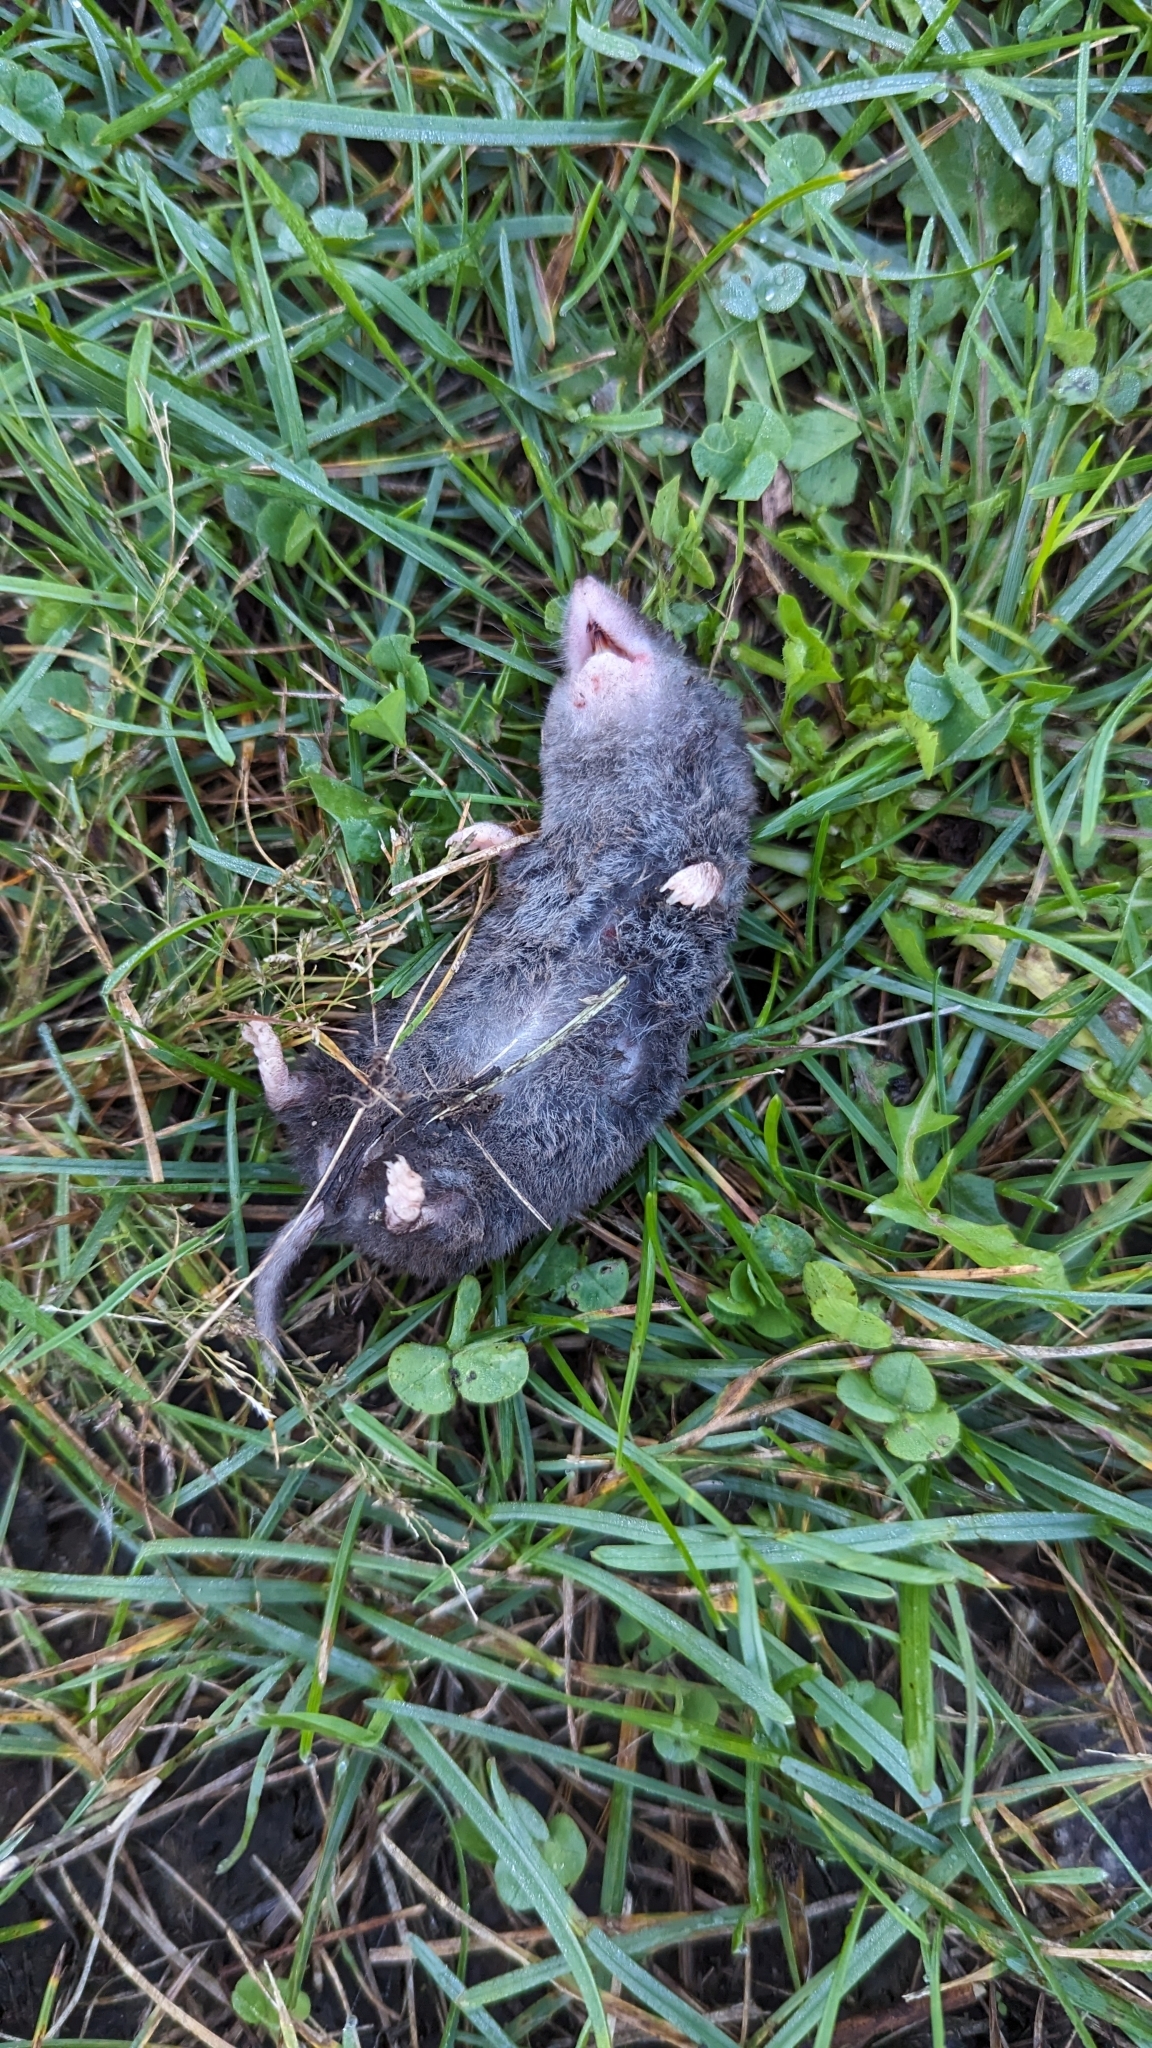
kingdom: Animalia
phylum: Chordata
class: Mammalia
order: Soricomorpha
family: Soricidae
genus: Blarina
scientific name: Blarina brevicauda
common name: Northern short-tailed shrew
